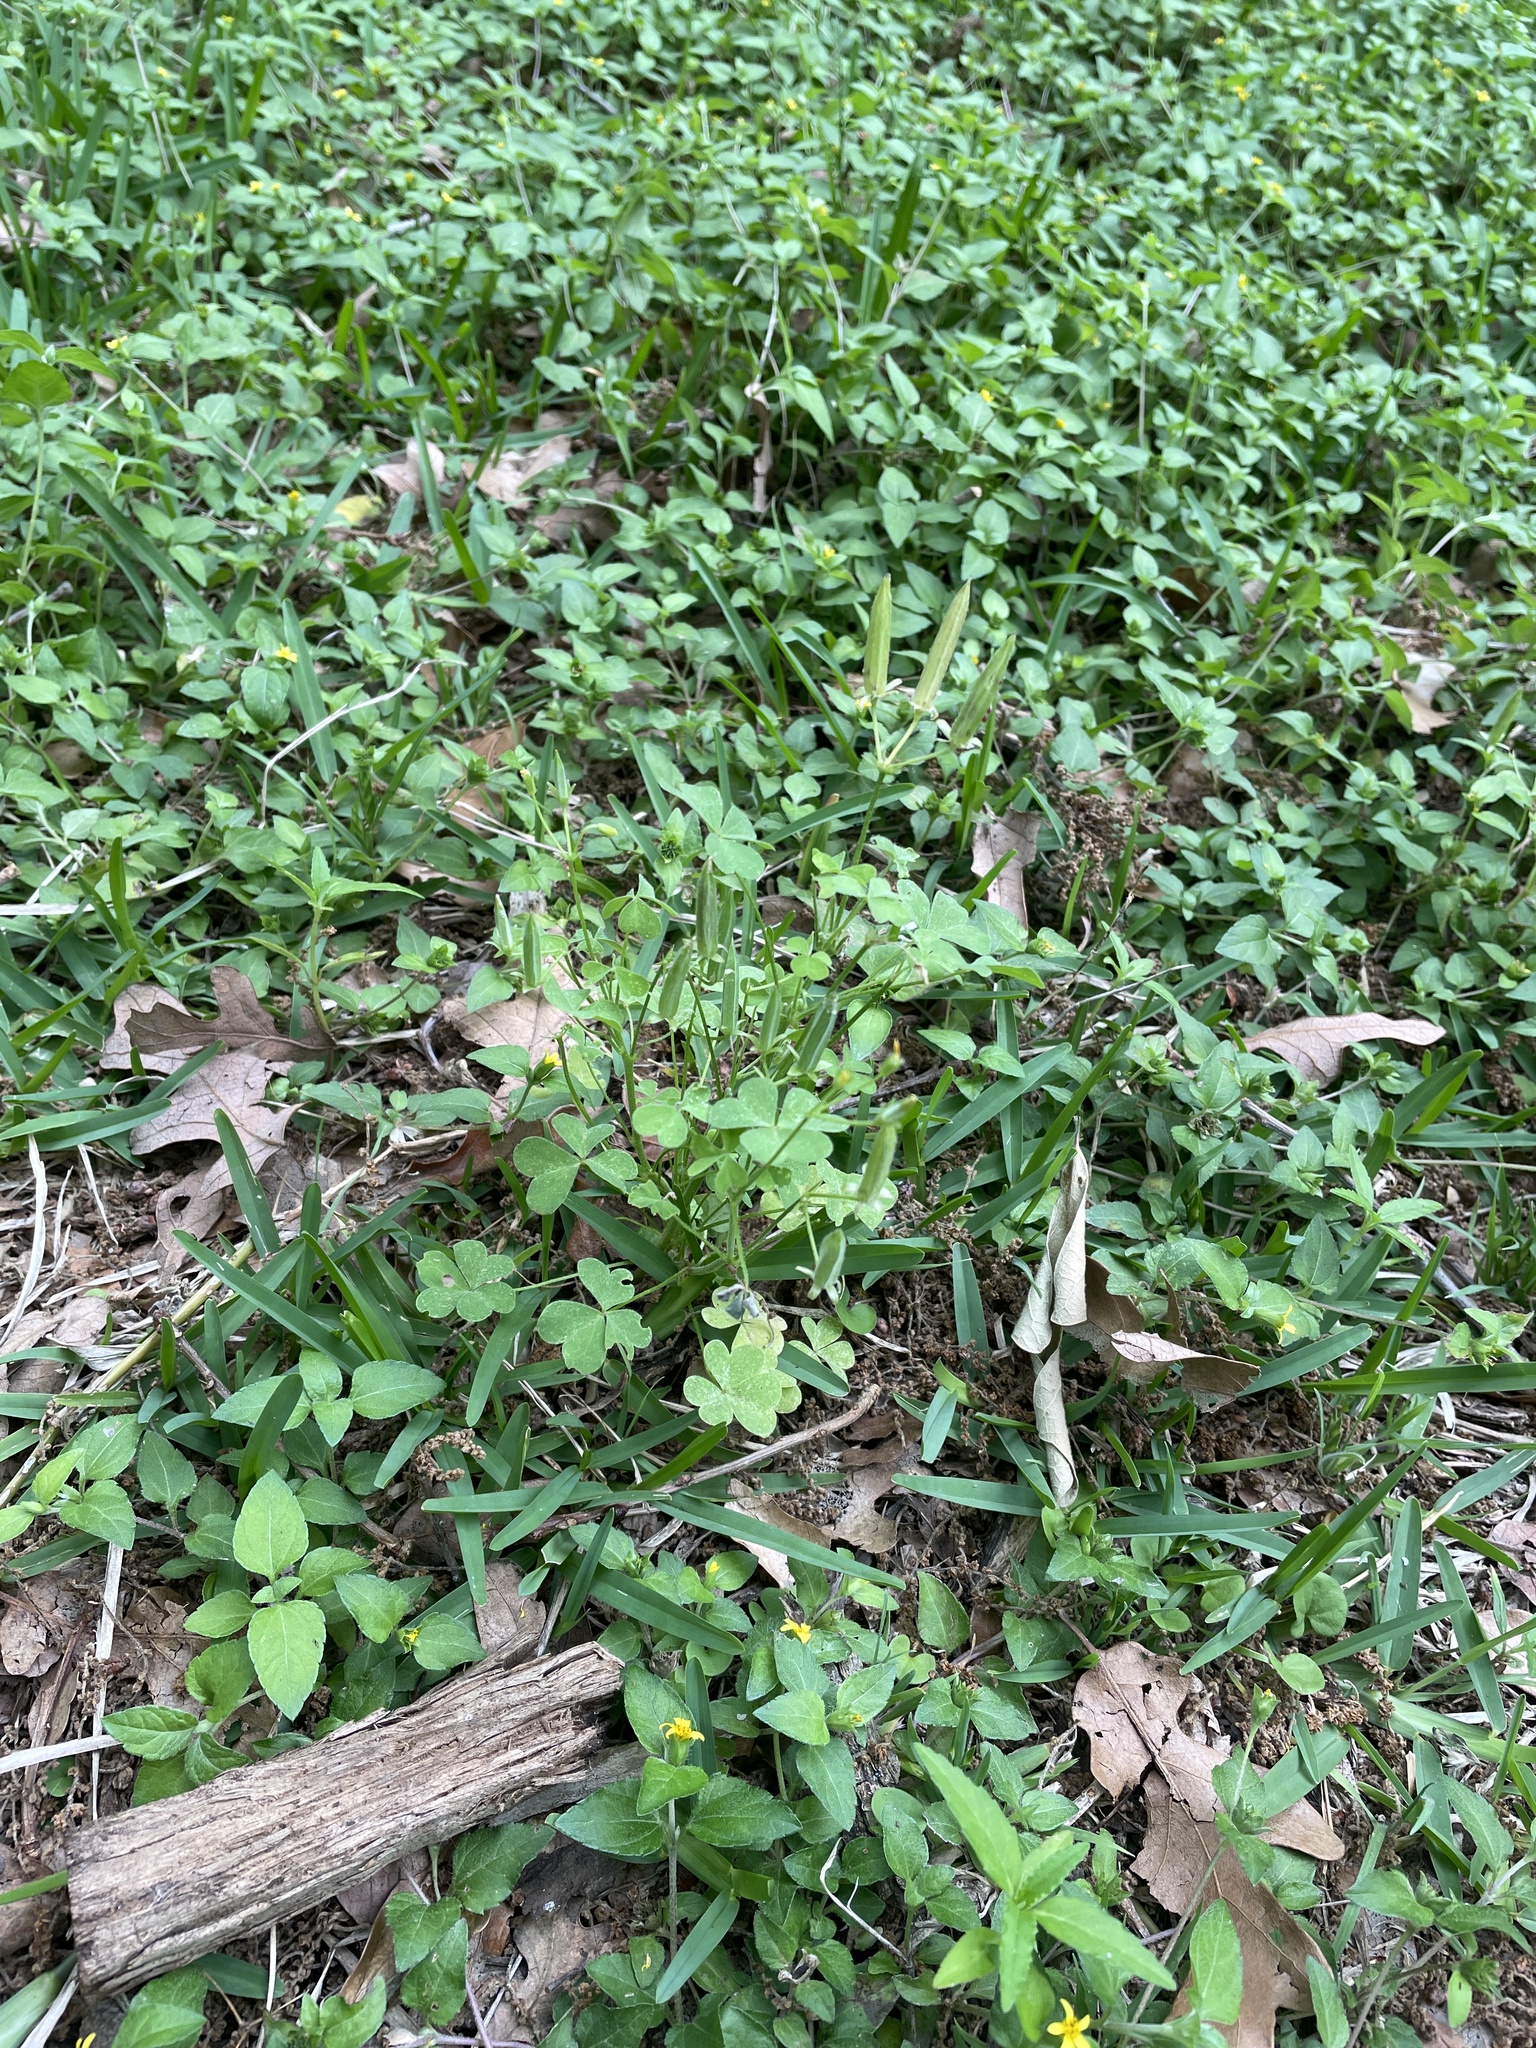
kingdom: Plantae
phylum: Tracheophyta
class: Magnoliopsida
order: Oxalidales
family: Oxalidaceae
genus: Oxalis
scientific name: Oxalis dillenii
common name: Sussex yellow-sorrel
